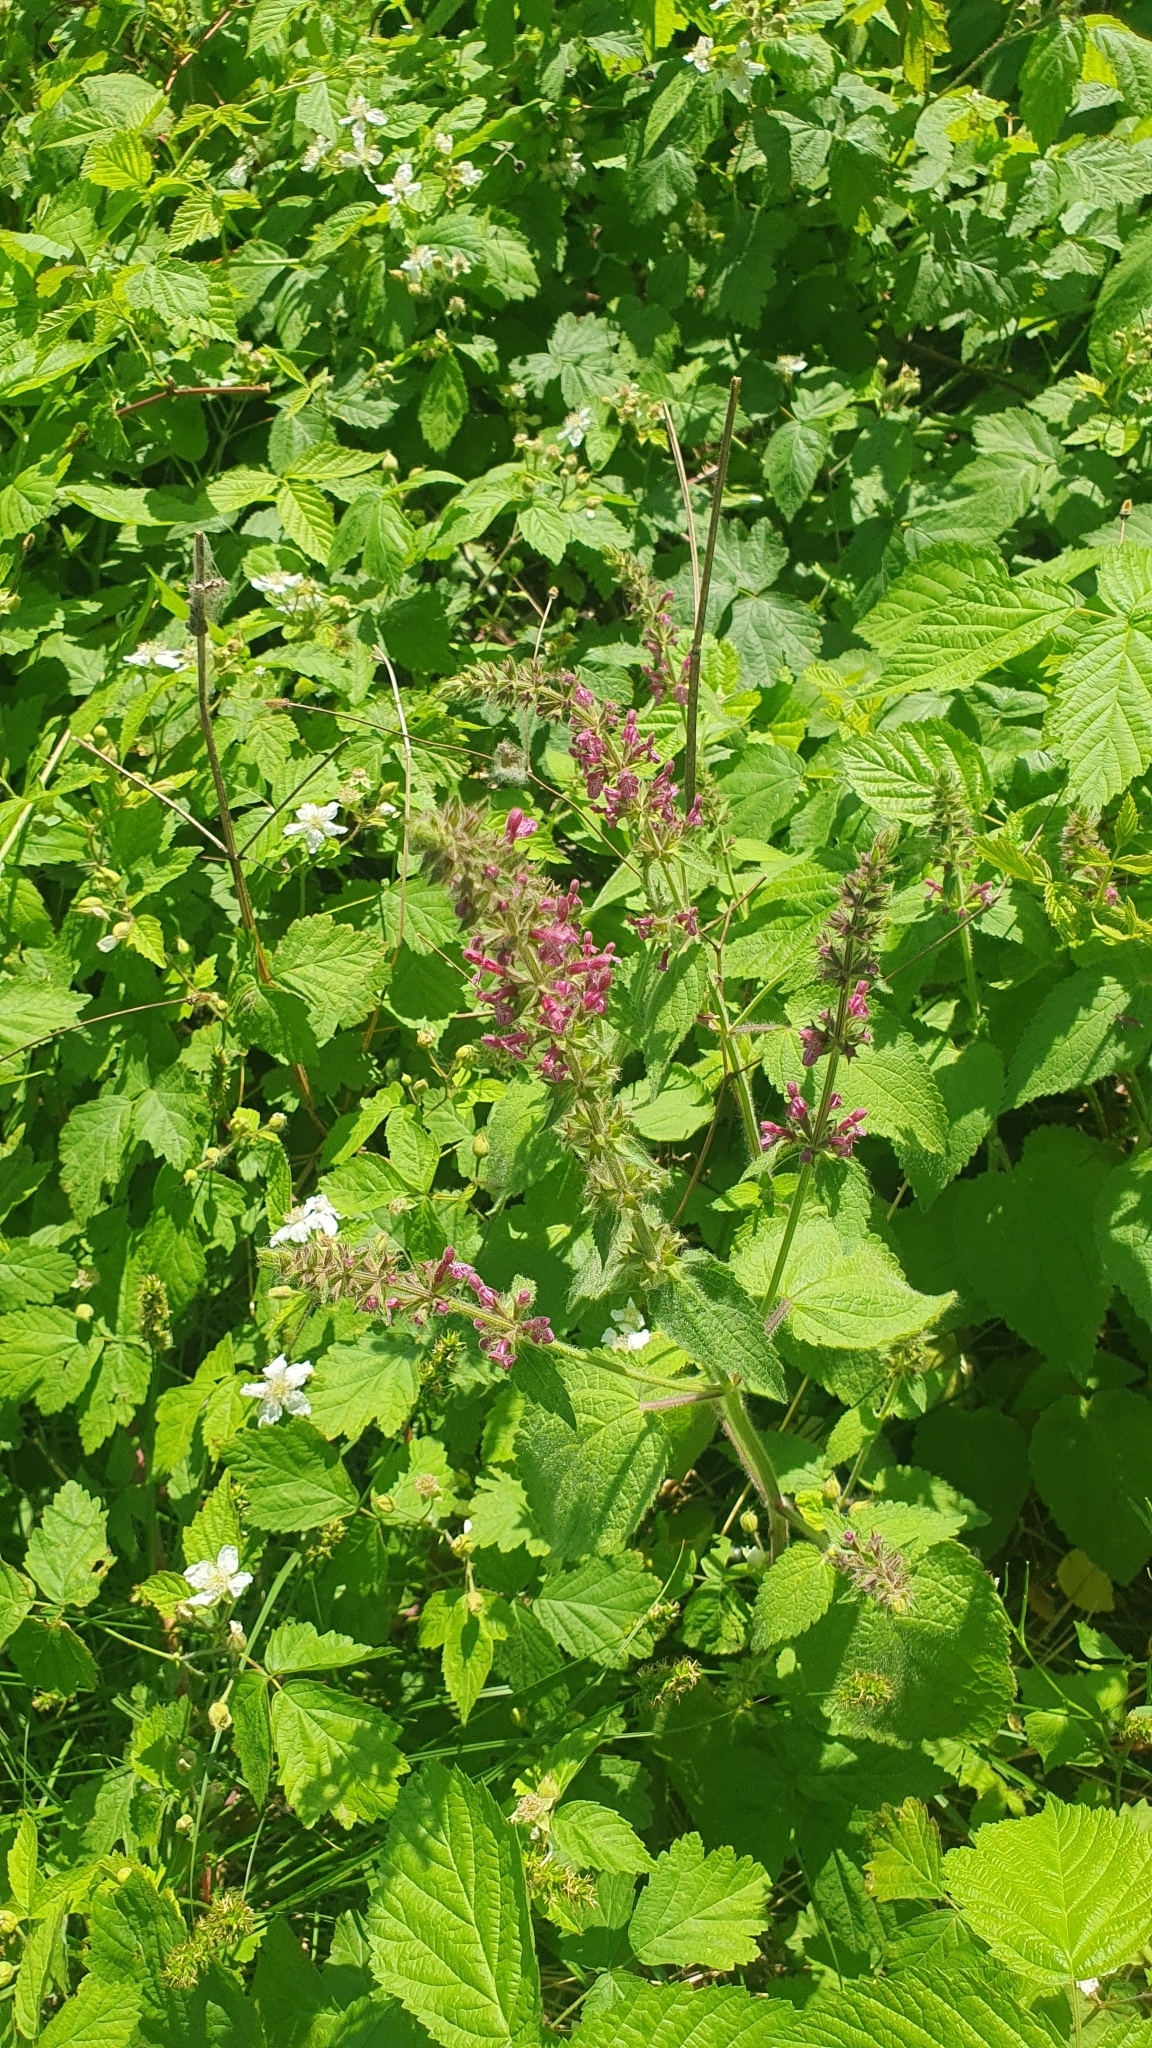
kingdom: Plantae
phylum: Tracheophyta
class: Magnoliopsida
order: Lamiales
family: Lamiaceae
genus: Stachys
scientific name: Stachys sylvatica
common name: Hedge woundwort
